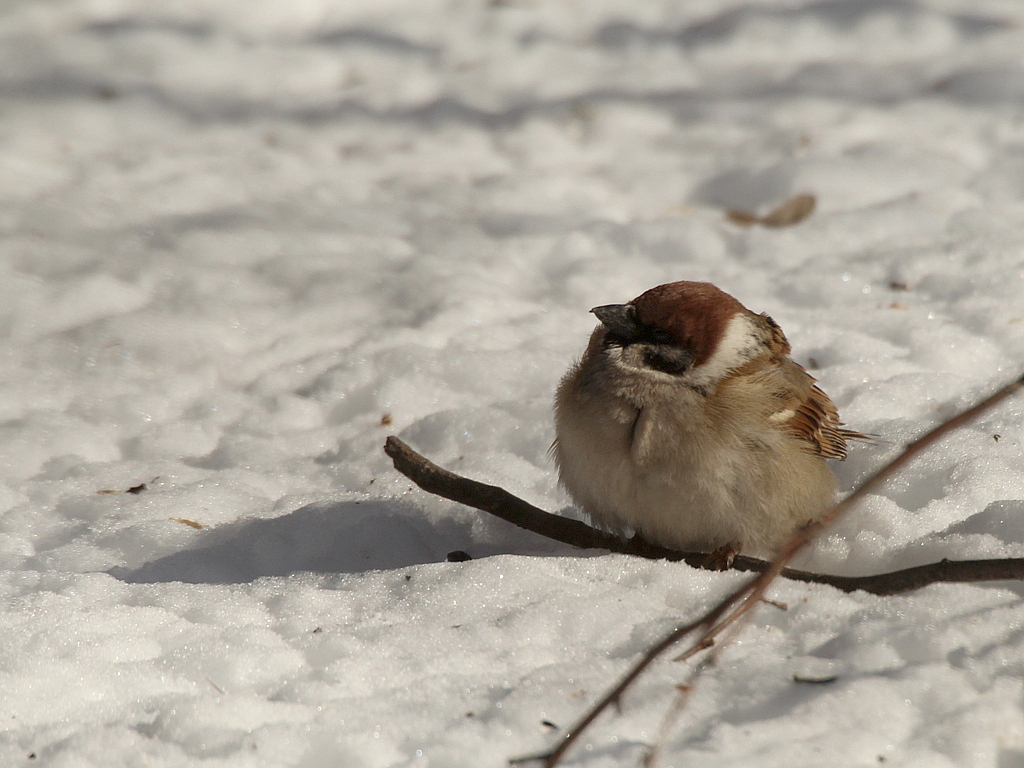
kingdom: Animalia
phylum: Chordata
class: Aves
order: Passeriformes
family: Passeridae
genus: Passer
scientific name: Passer montanus
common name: Eurasian tree sparrow
